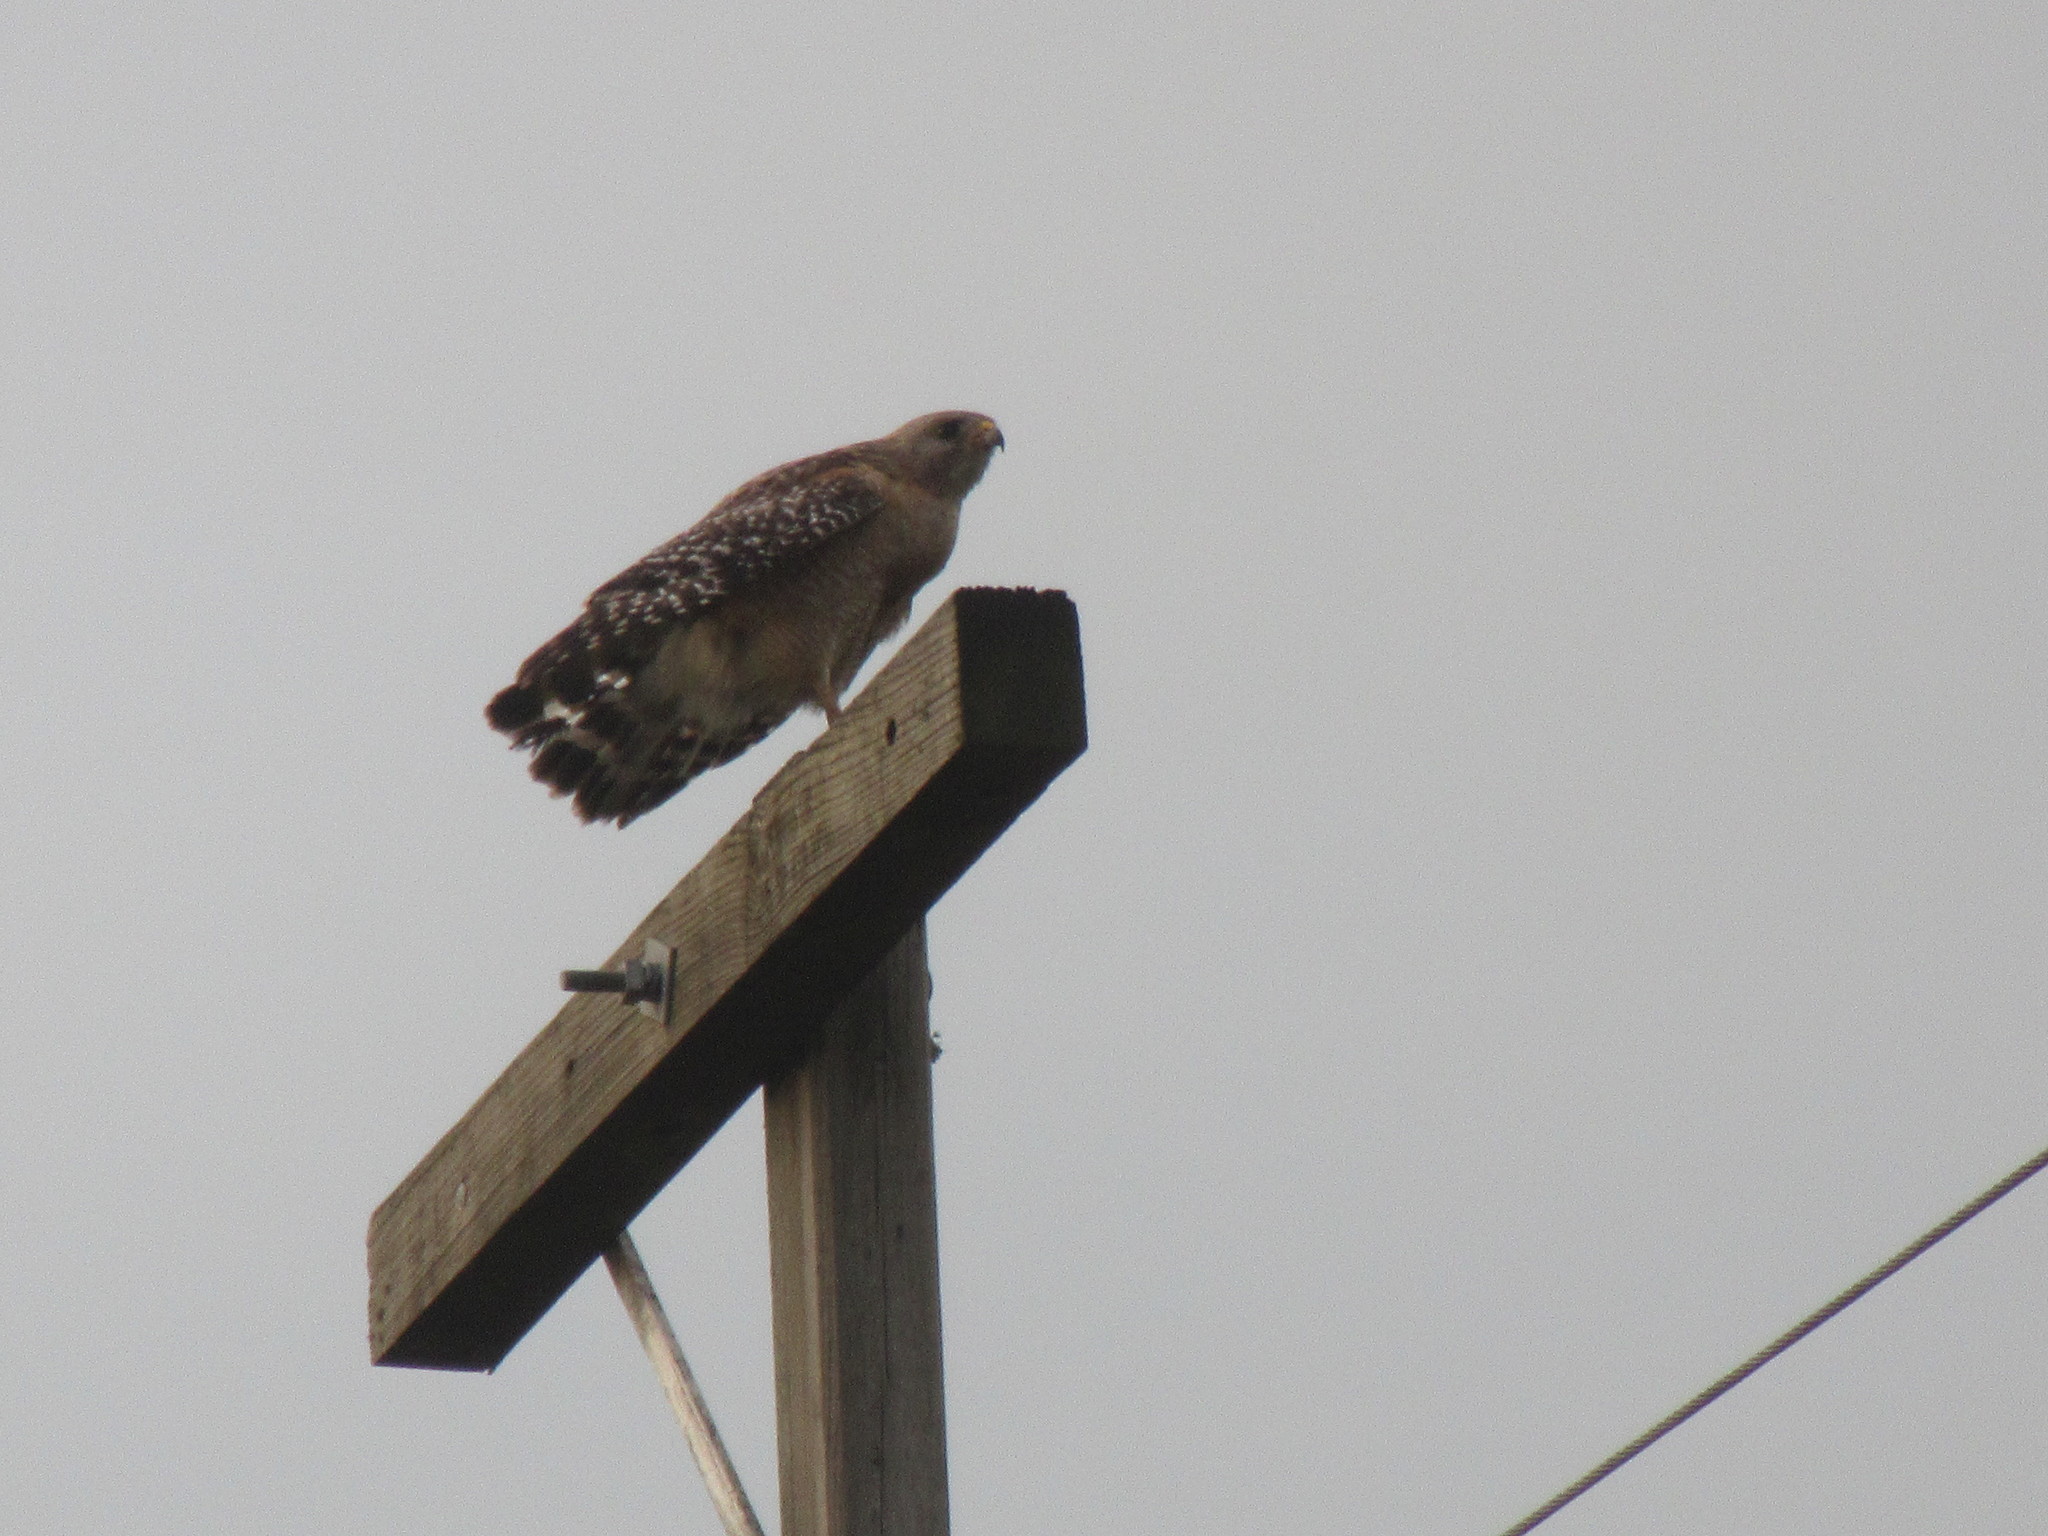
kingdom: Animalia
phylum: Chordata
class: Aves
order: Accipitriformes
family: Accipitridae
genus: Buteo
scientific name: Buteo lineatus
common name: Red-shouldered hawk
